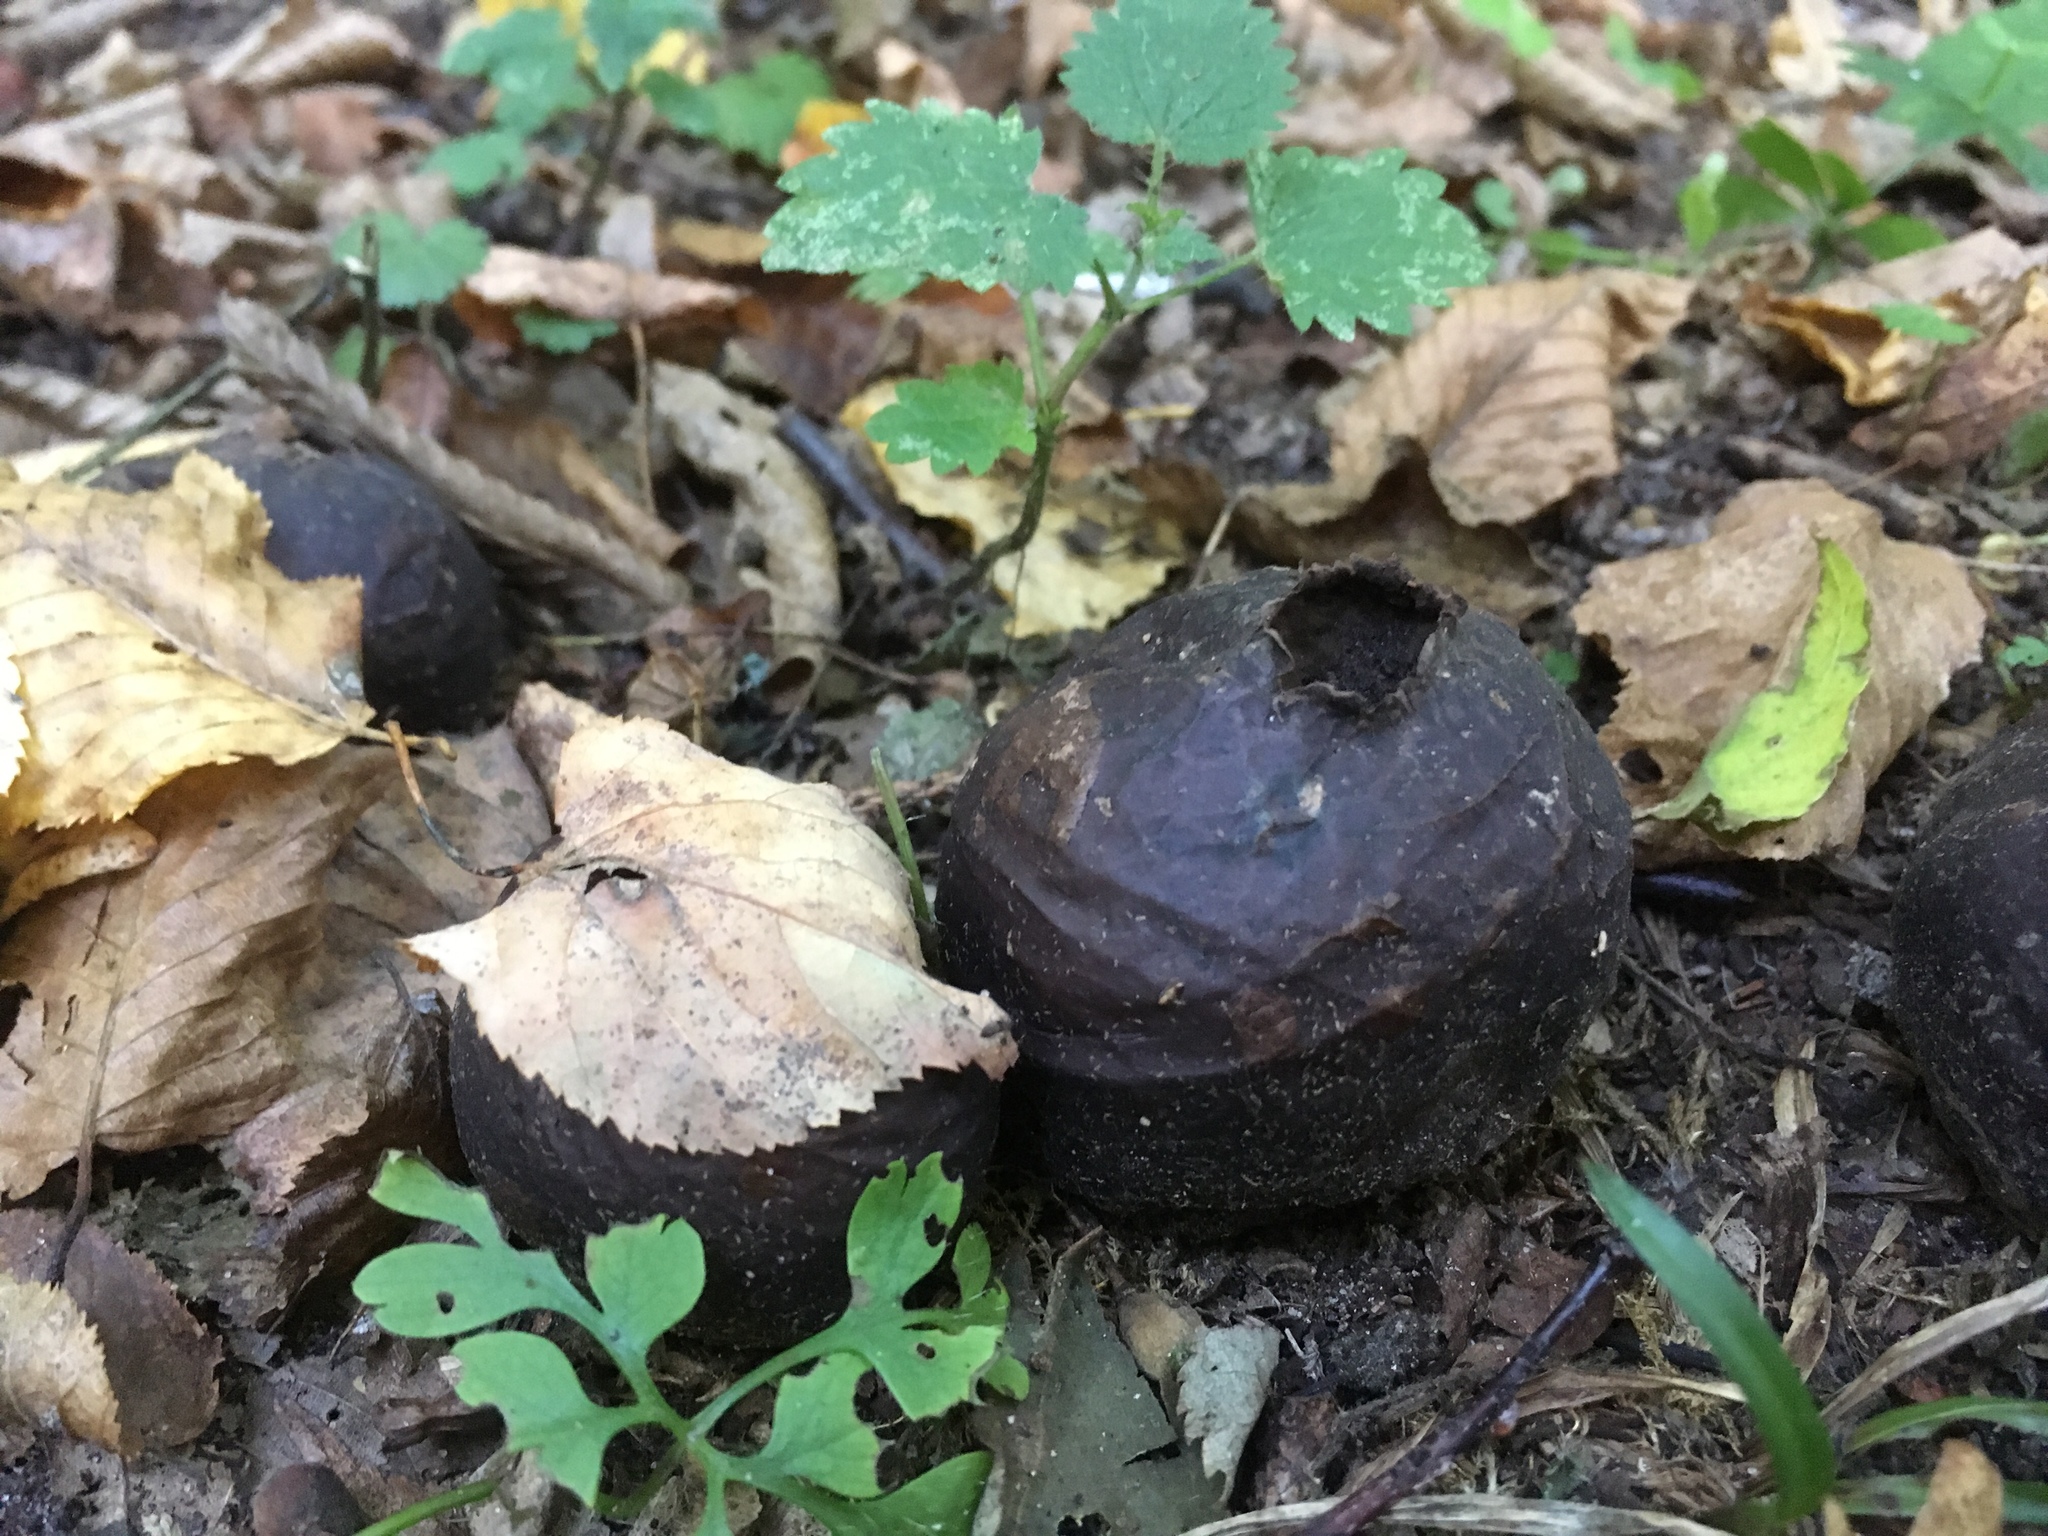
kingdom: Fungi
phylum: Basidiomycota
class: Agaricomycetes
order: Agaricales
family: Lycoperdaceae
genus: Bovista
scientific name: Bovista nigrescens
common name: Brown puffball
